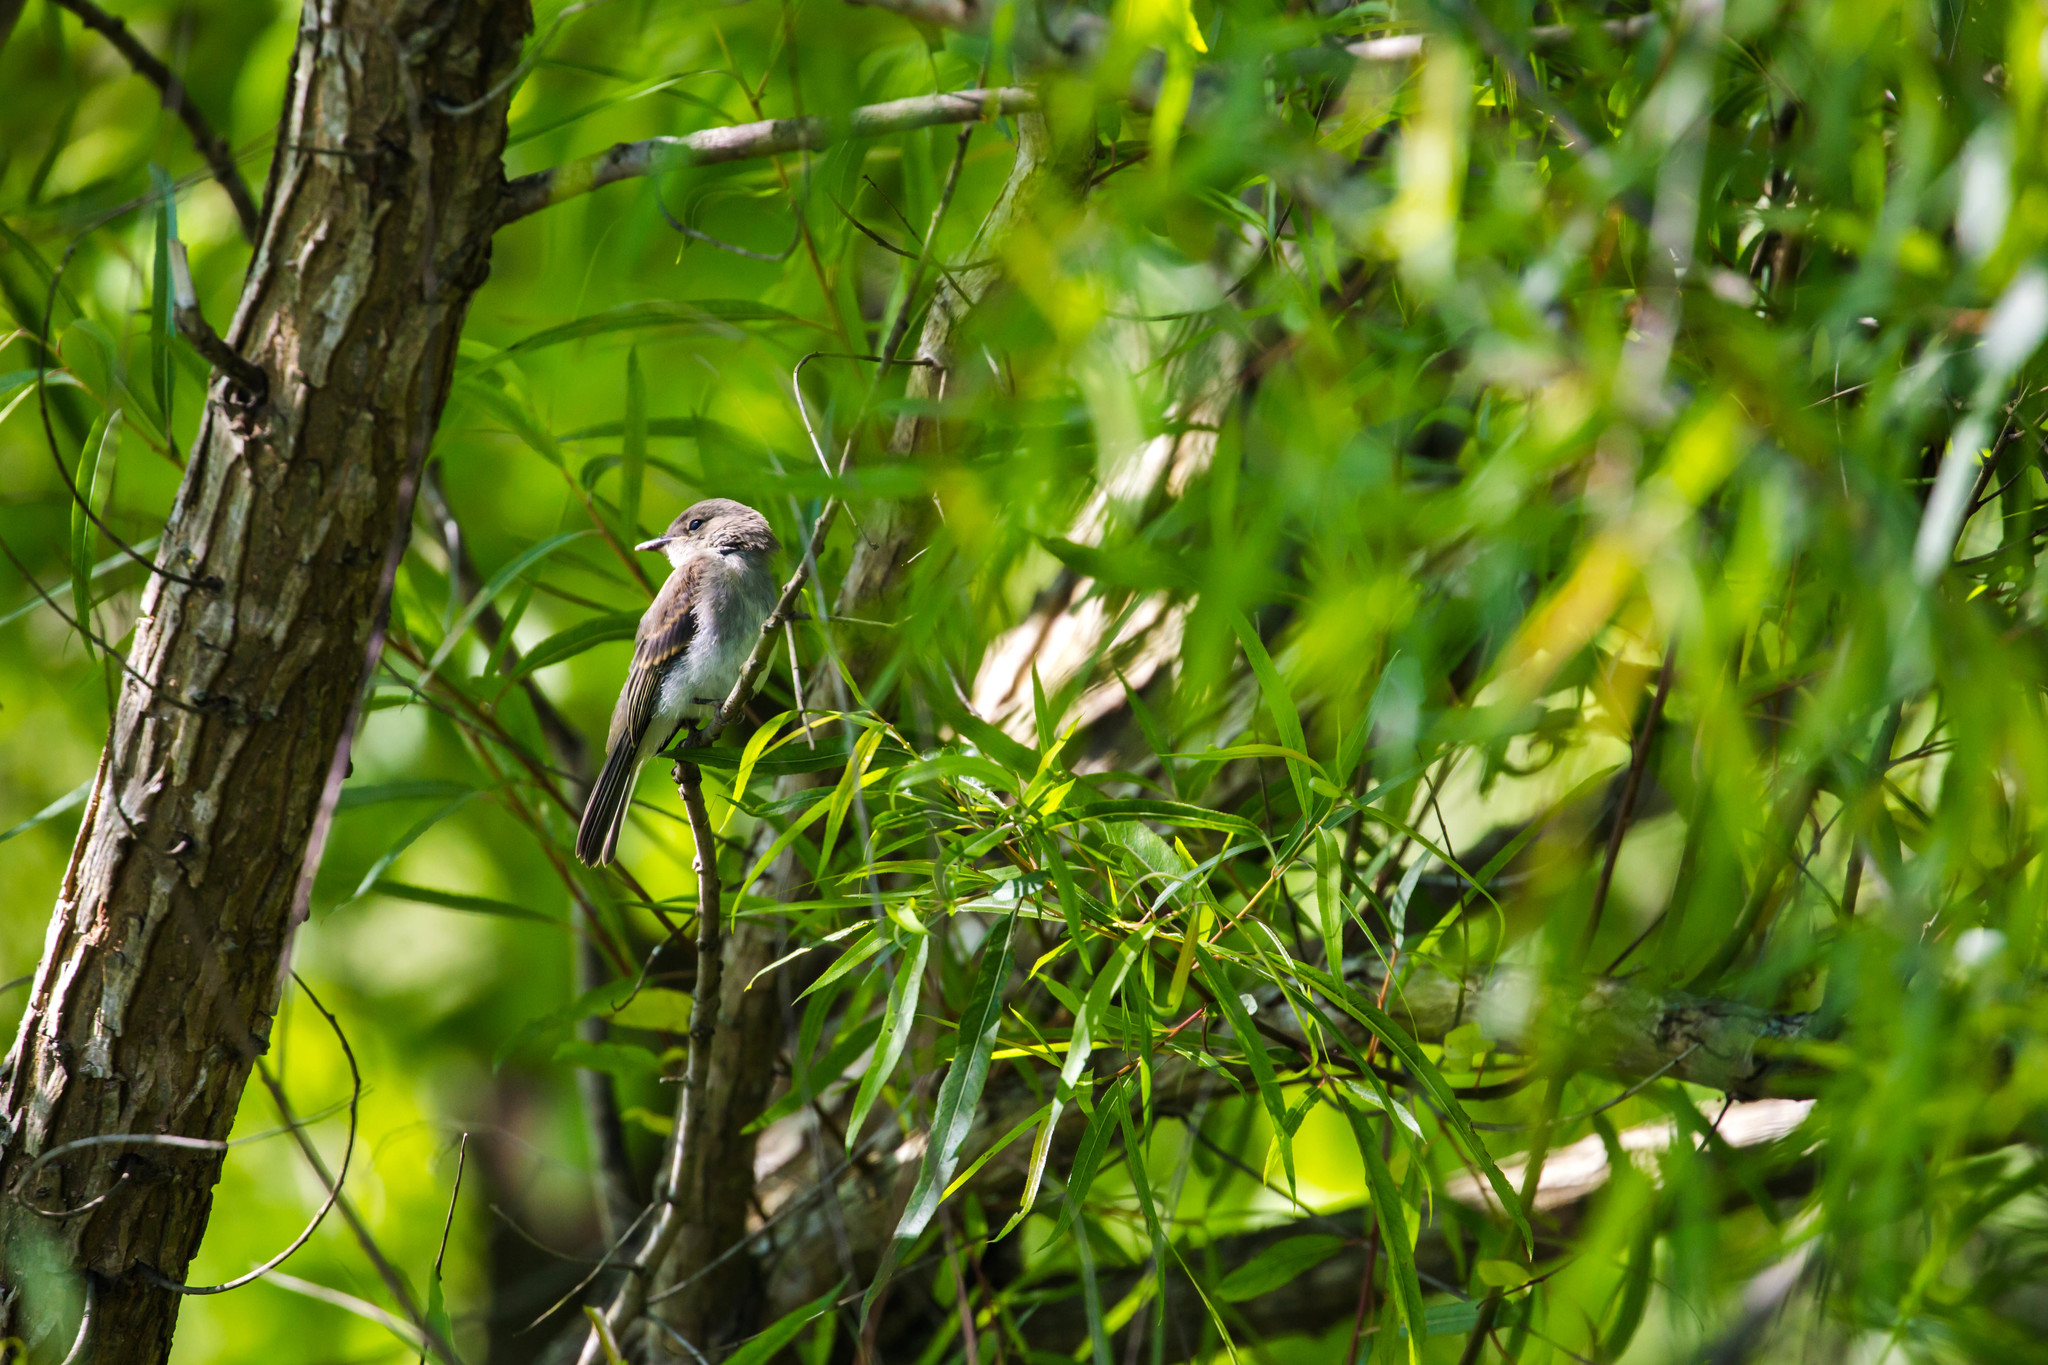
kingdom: Animalia
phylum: Chordata
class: Aves
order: Passeriformes
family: Tyrannidae
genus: Sayornis
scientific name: Sayornis phoebe
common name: Eastern phoebe
